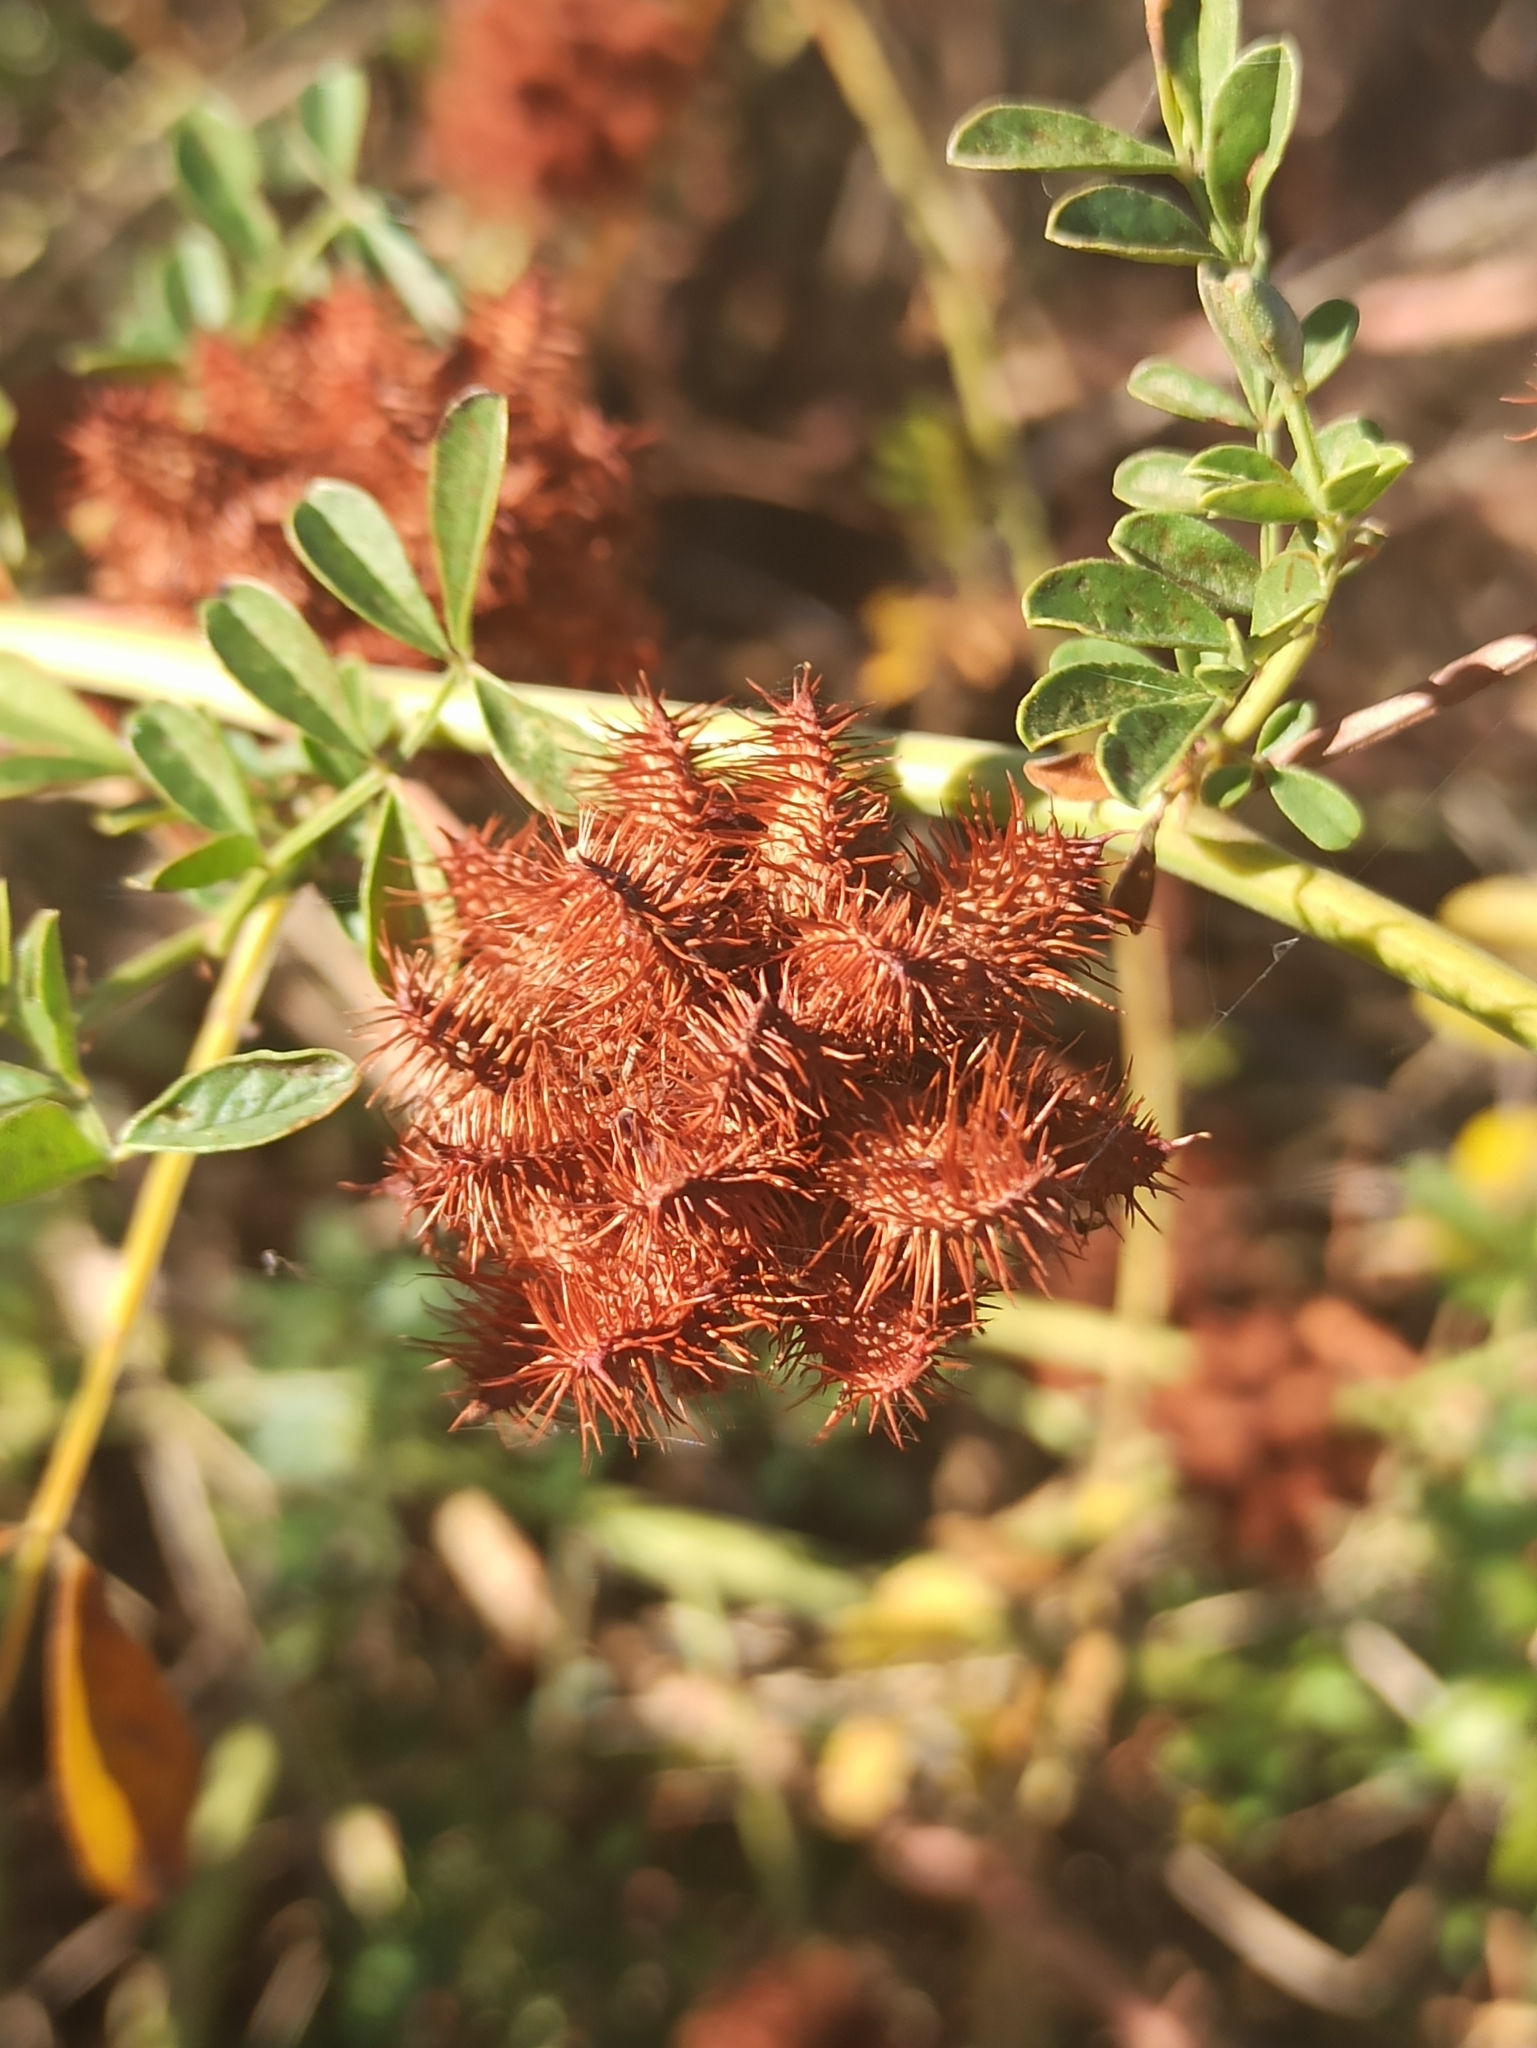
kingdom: Plantae
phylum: Tracheophyta
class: Magnoliopsida
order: Fabales
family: Fabaceae
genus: Glycyrrhiza
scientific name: Glycyrrhiza echinata
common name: German liquorice
